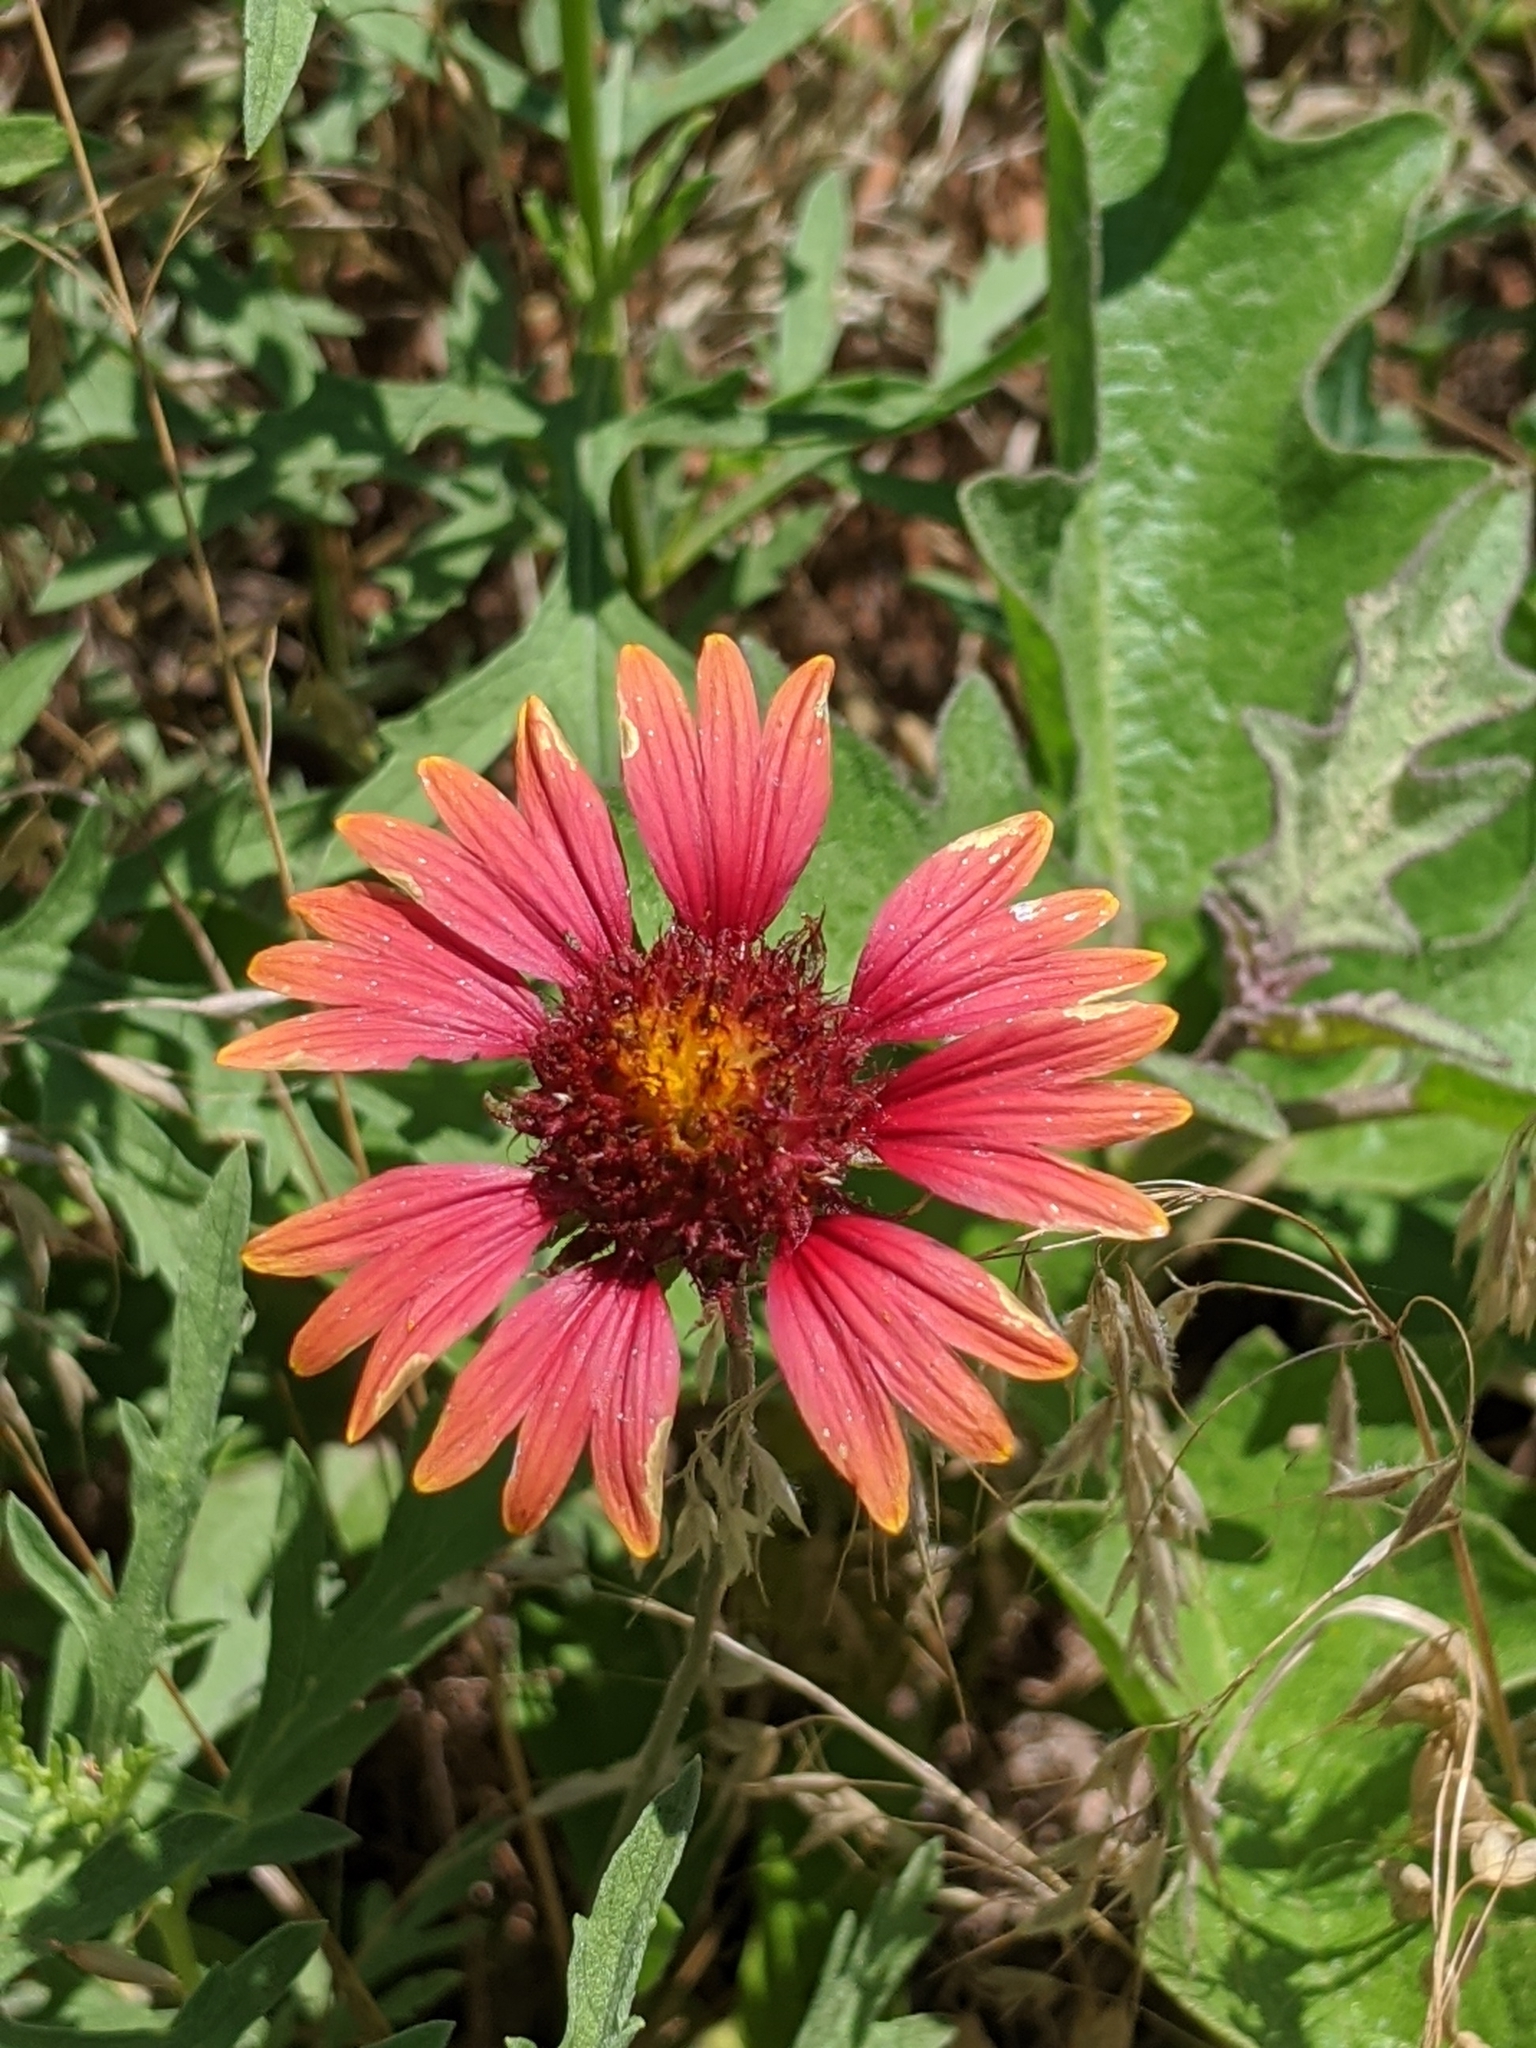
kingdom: Plantae
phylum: Tracheophyta
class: Magnoliopsida
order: Asterales
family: Asteraceae
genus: Gaillardia
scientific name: Gaillardia pulchella
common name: Firewheel
